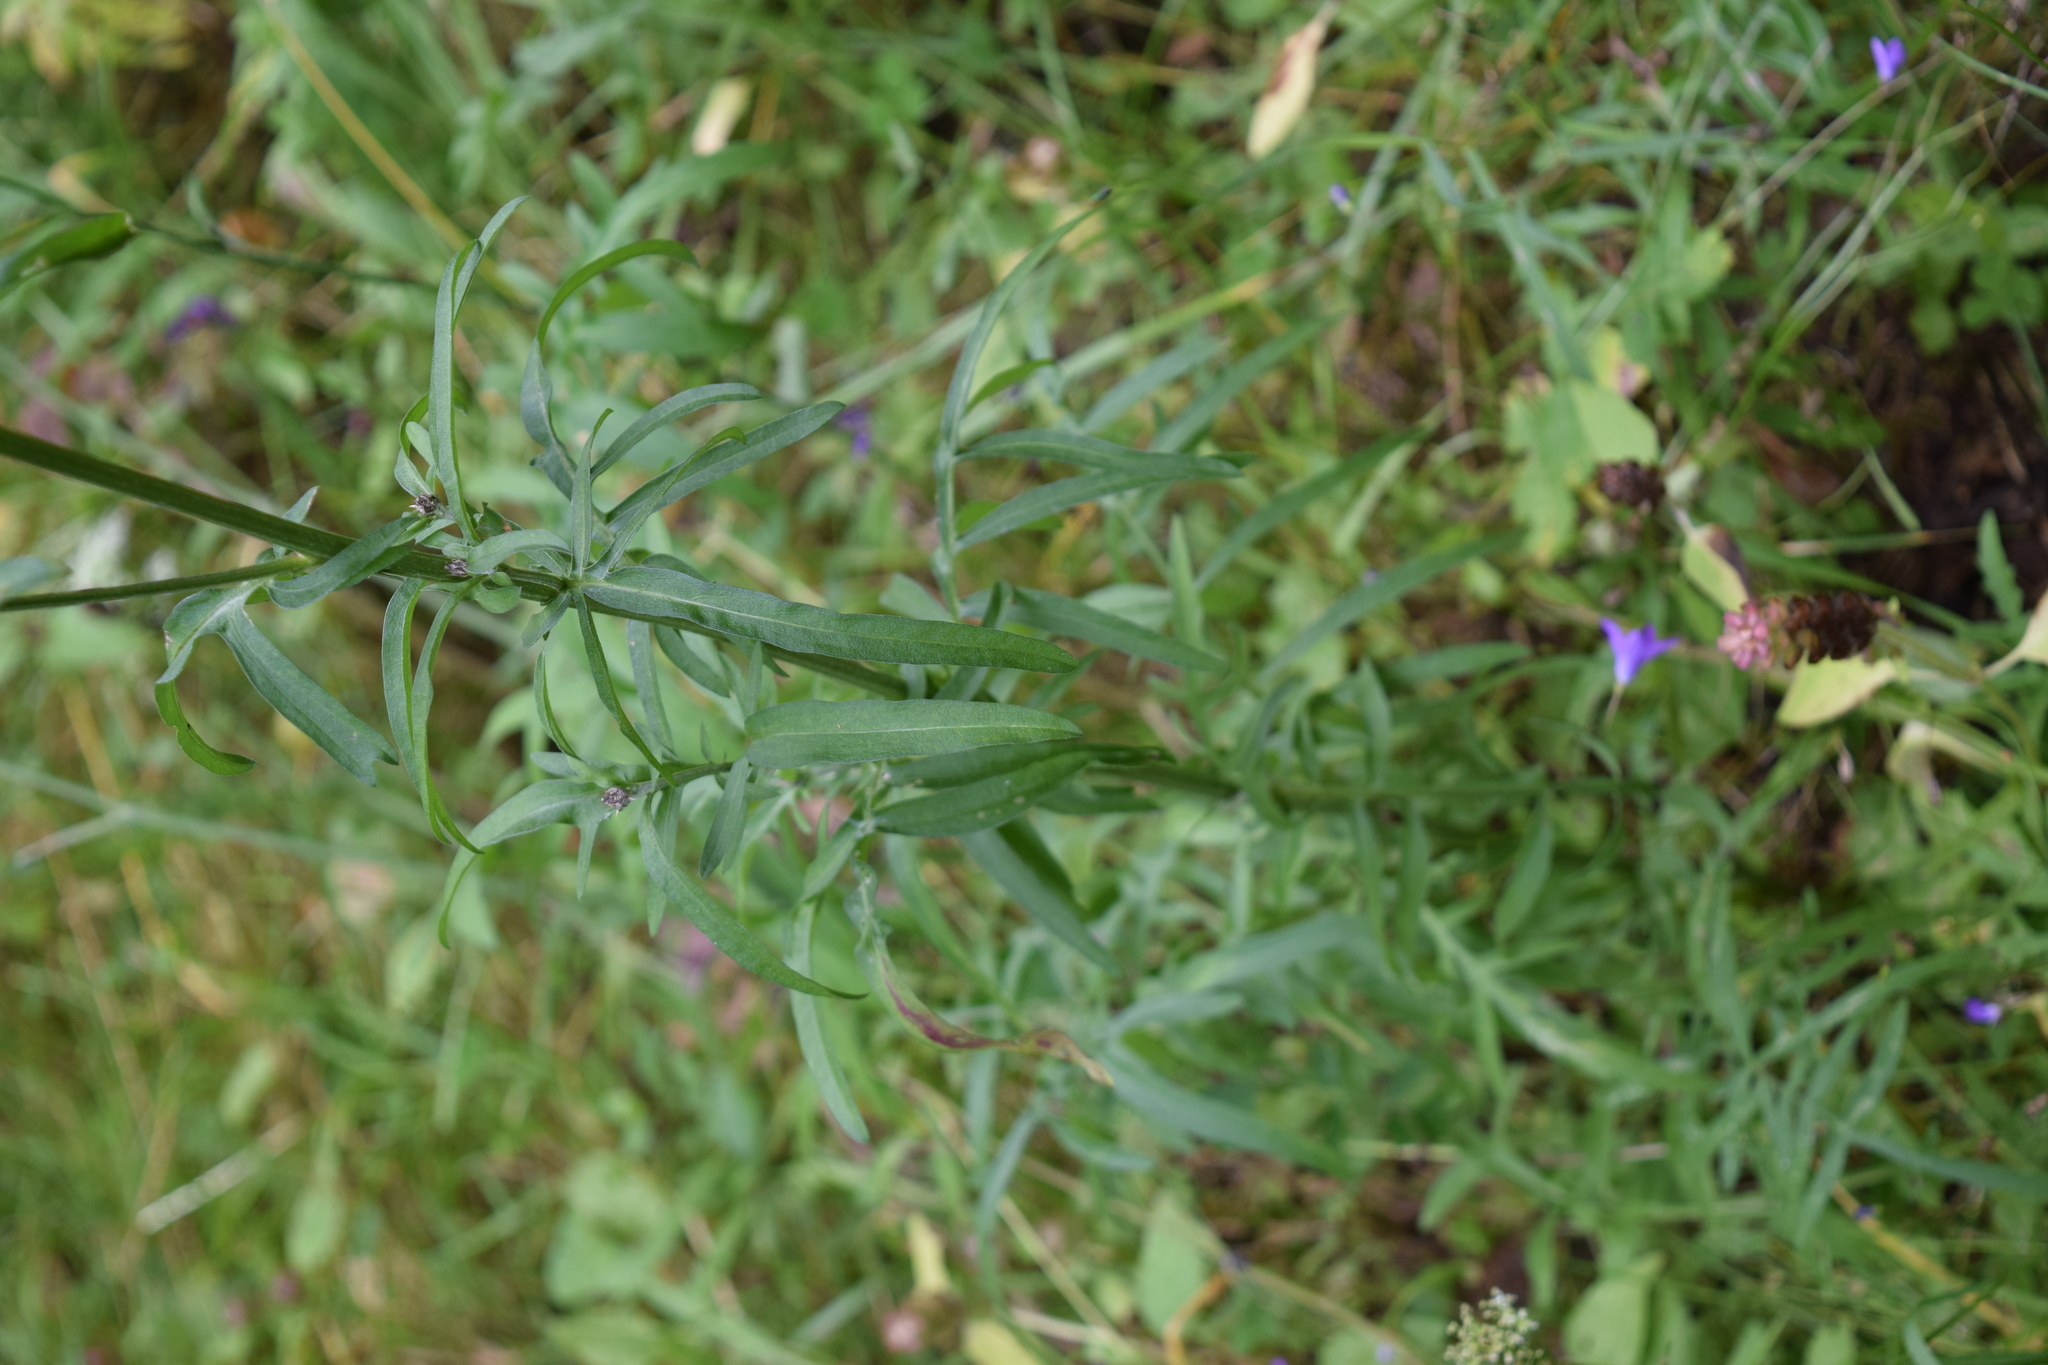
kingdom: Plantae
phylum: Tracheophyta
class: Magnoliopsida
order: Asterales
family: Asteraceae
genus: Centaurea
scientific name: Centaurea scabiosa
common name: Greater knapweed
